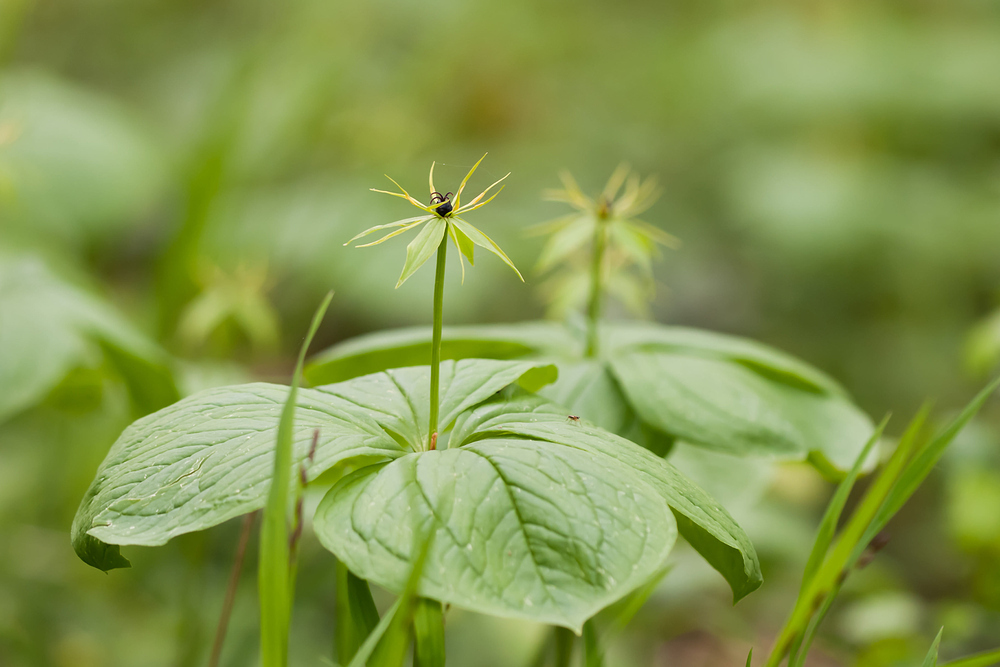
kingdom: Plantae
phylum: Tracheophyta
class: Liliopsida
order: Liliales
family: Melanthiaceae
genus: Paris
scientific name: Paris quadrifolia
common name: Herb-paris
